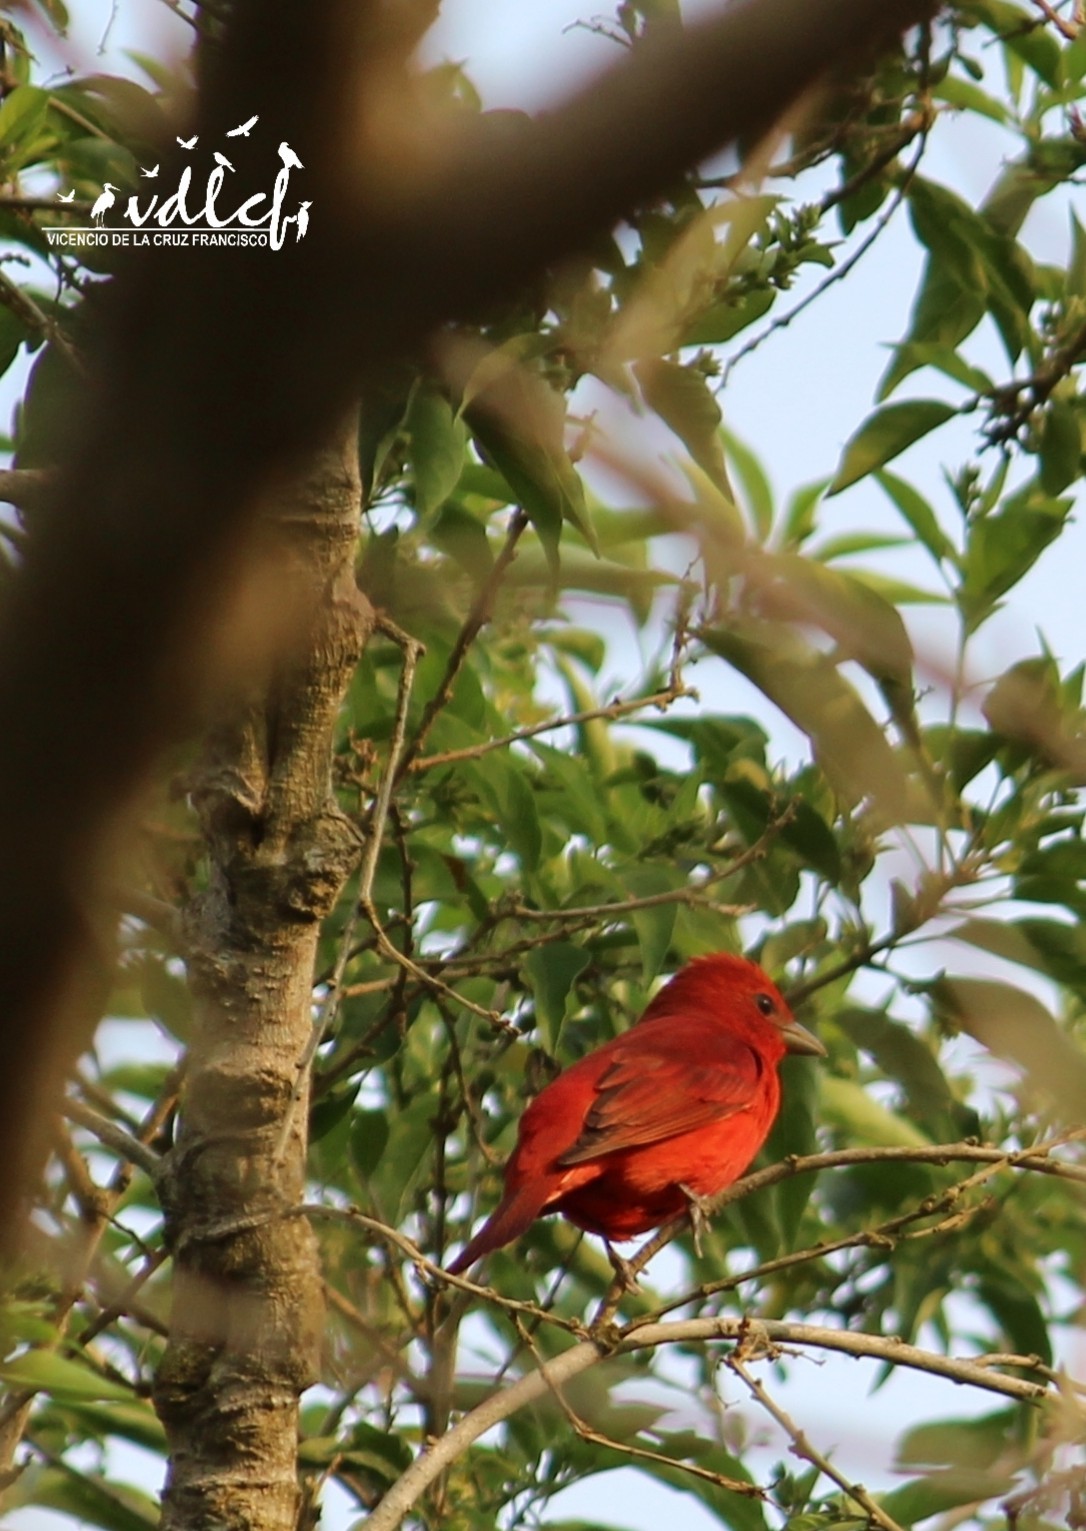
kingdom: Animalia
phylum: Chordata
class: Aves
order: Passeriformes
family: Cardinalidae
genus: Piranga
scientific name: Piranga rubra
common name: Summer tanager
